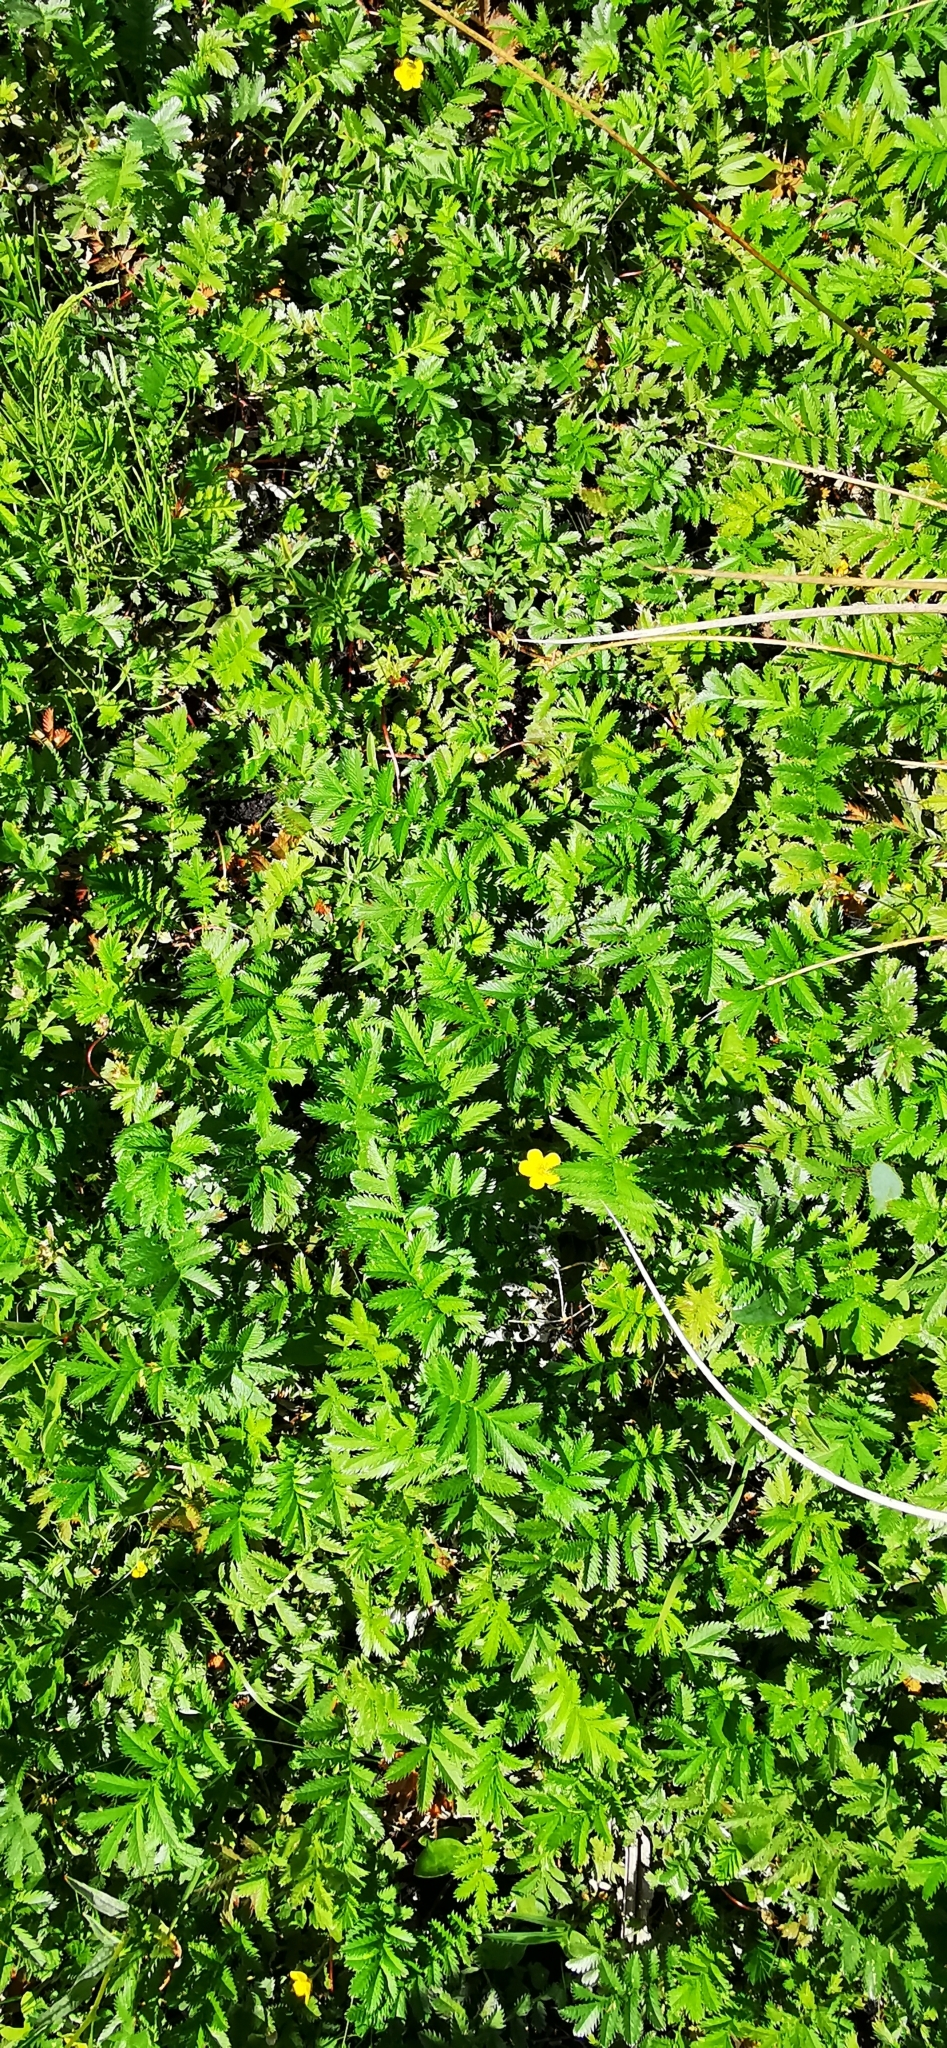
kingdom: Plantae
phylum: Tracheophyta
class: Magnoliopsida
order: Rosales
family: Rosaceae
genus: Argentina
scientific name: Argentina anserina
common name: Common silverweed
